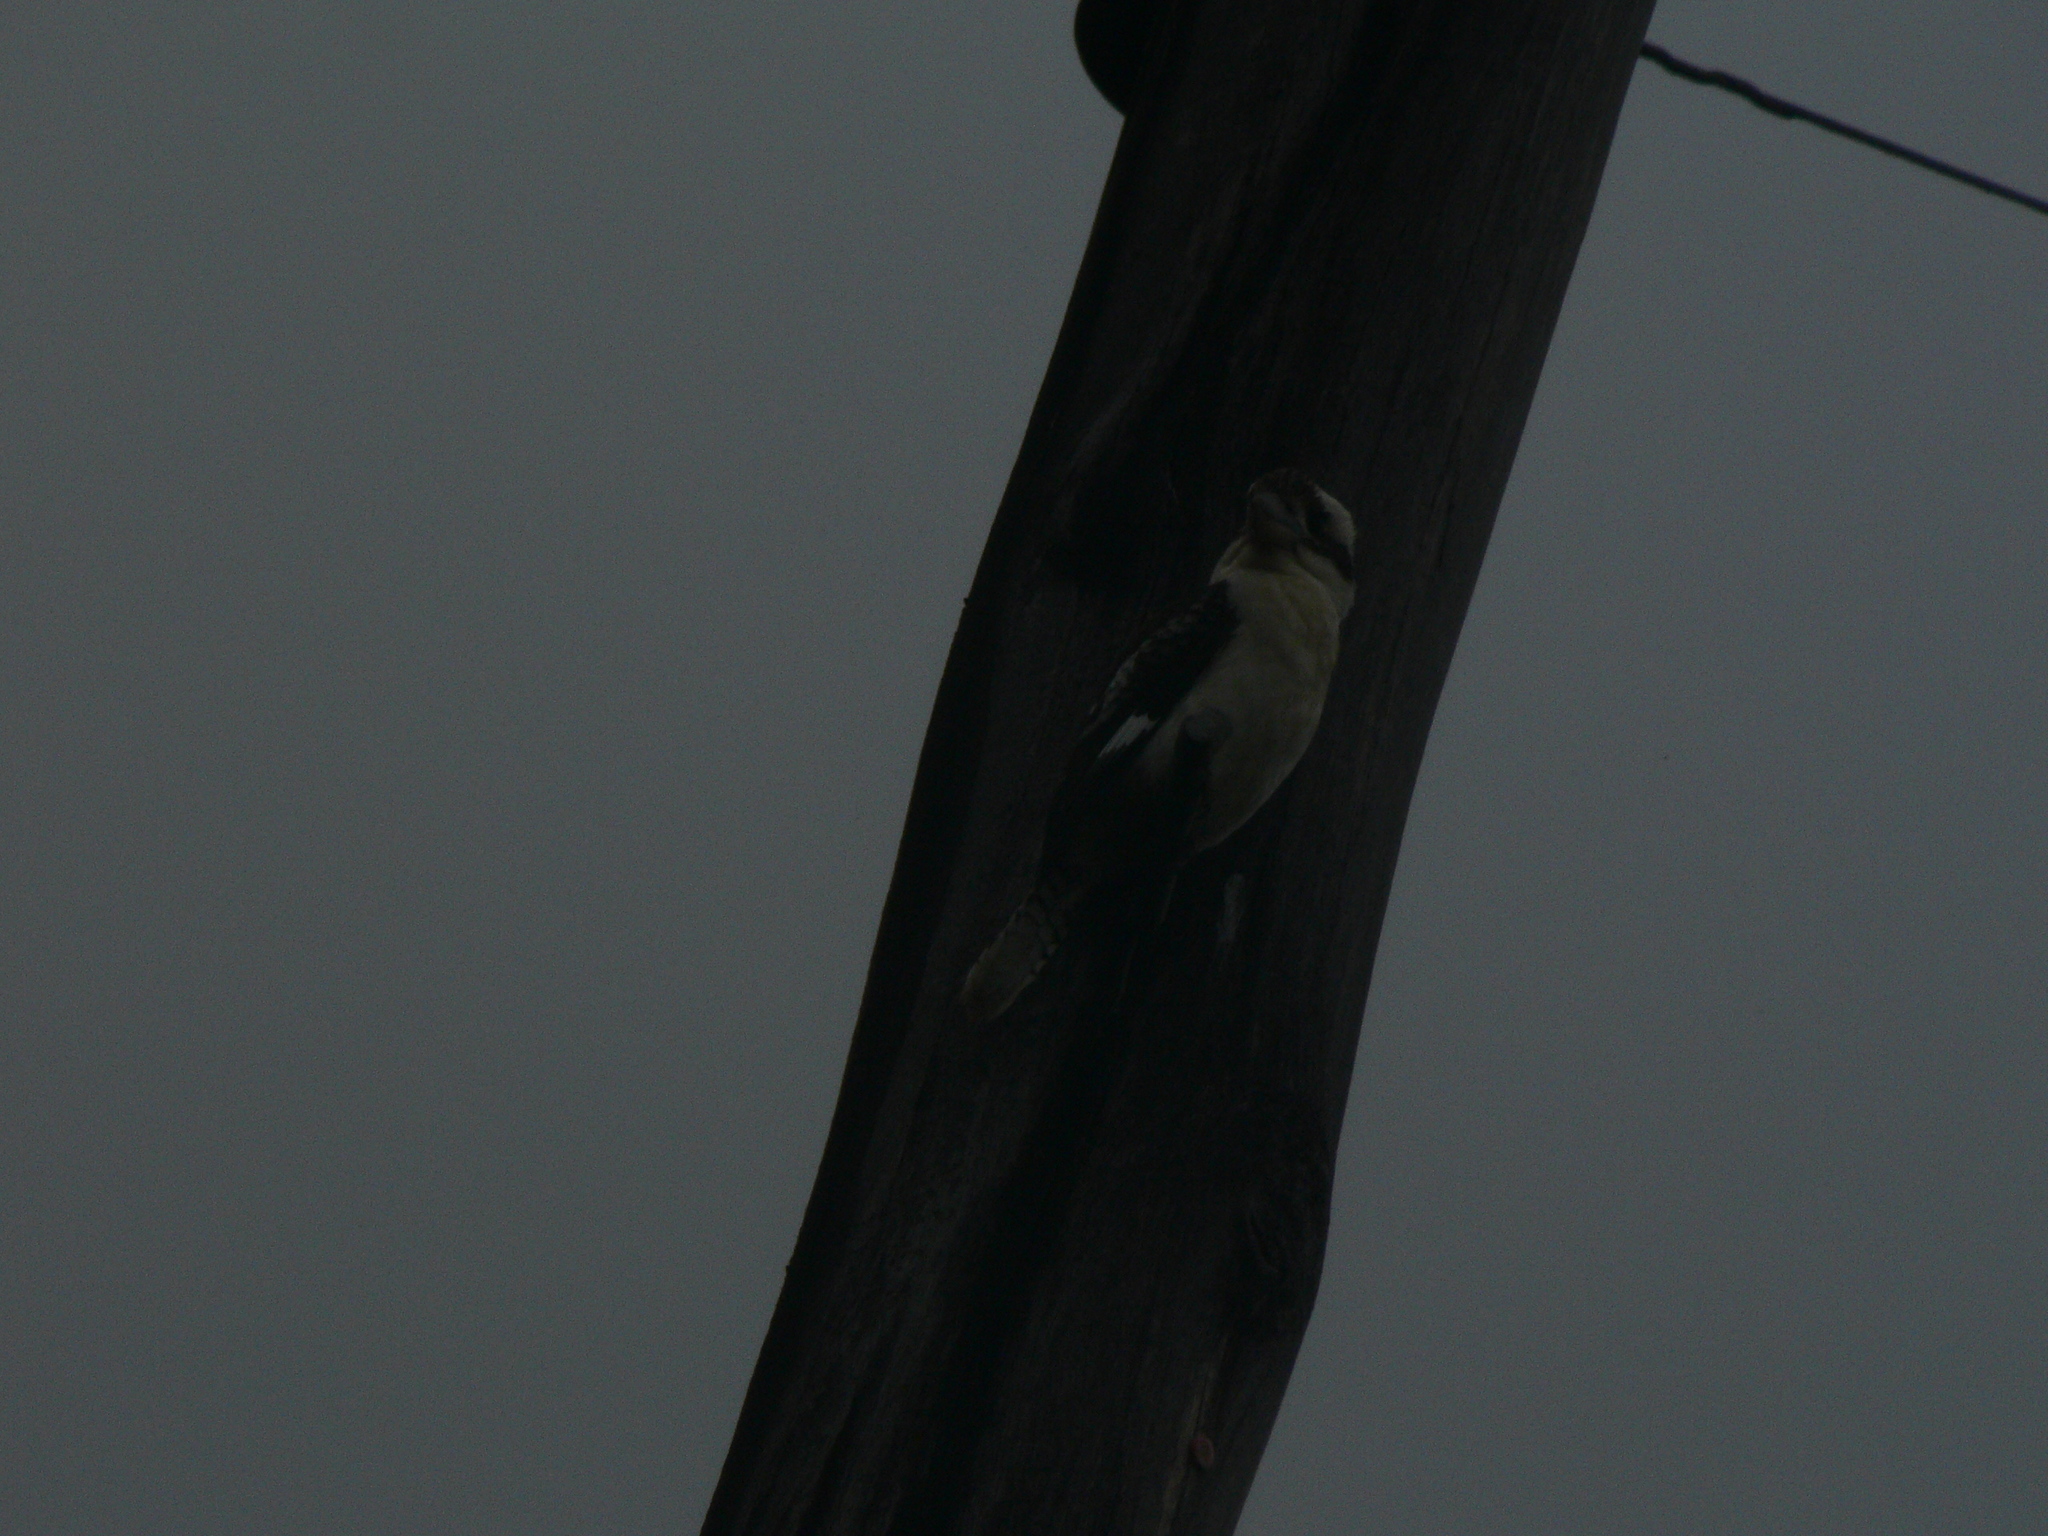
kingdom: Animalia
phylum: Chordata
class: Aves
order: Coraciiformes
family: Alcedinidae
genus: Dacelo
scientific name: Dacelo novaeguineae
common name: Laughing kookaburra
